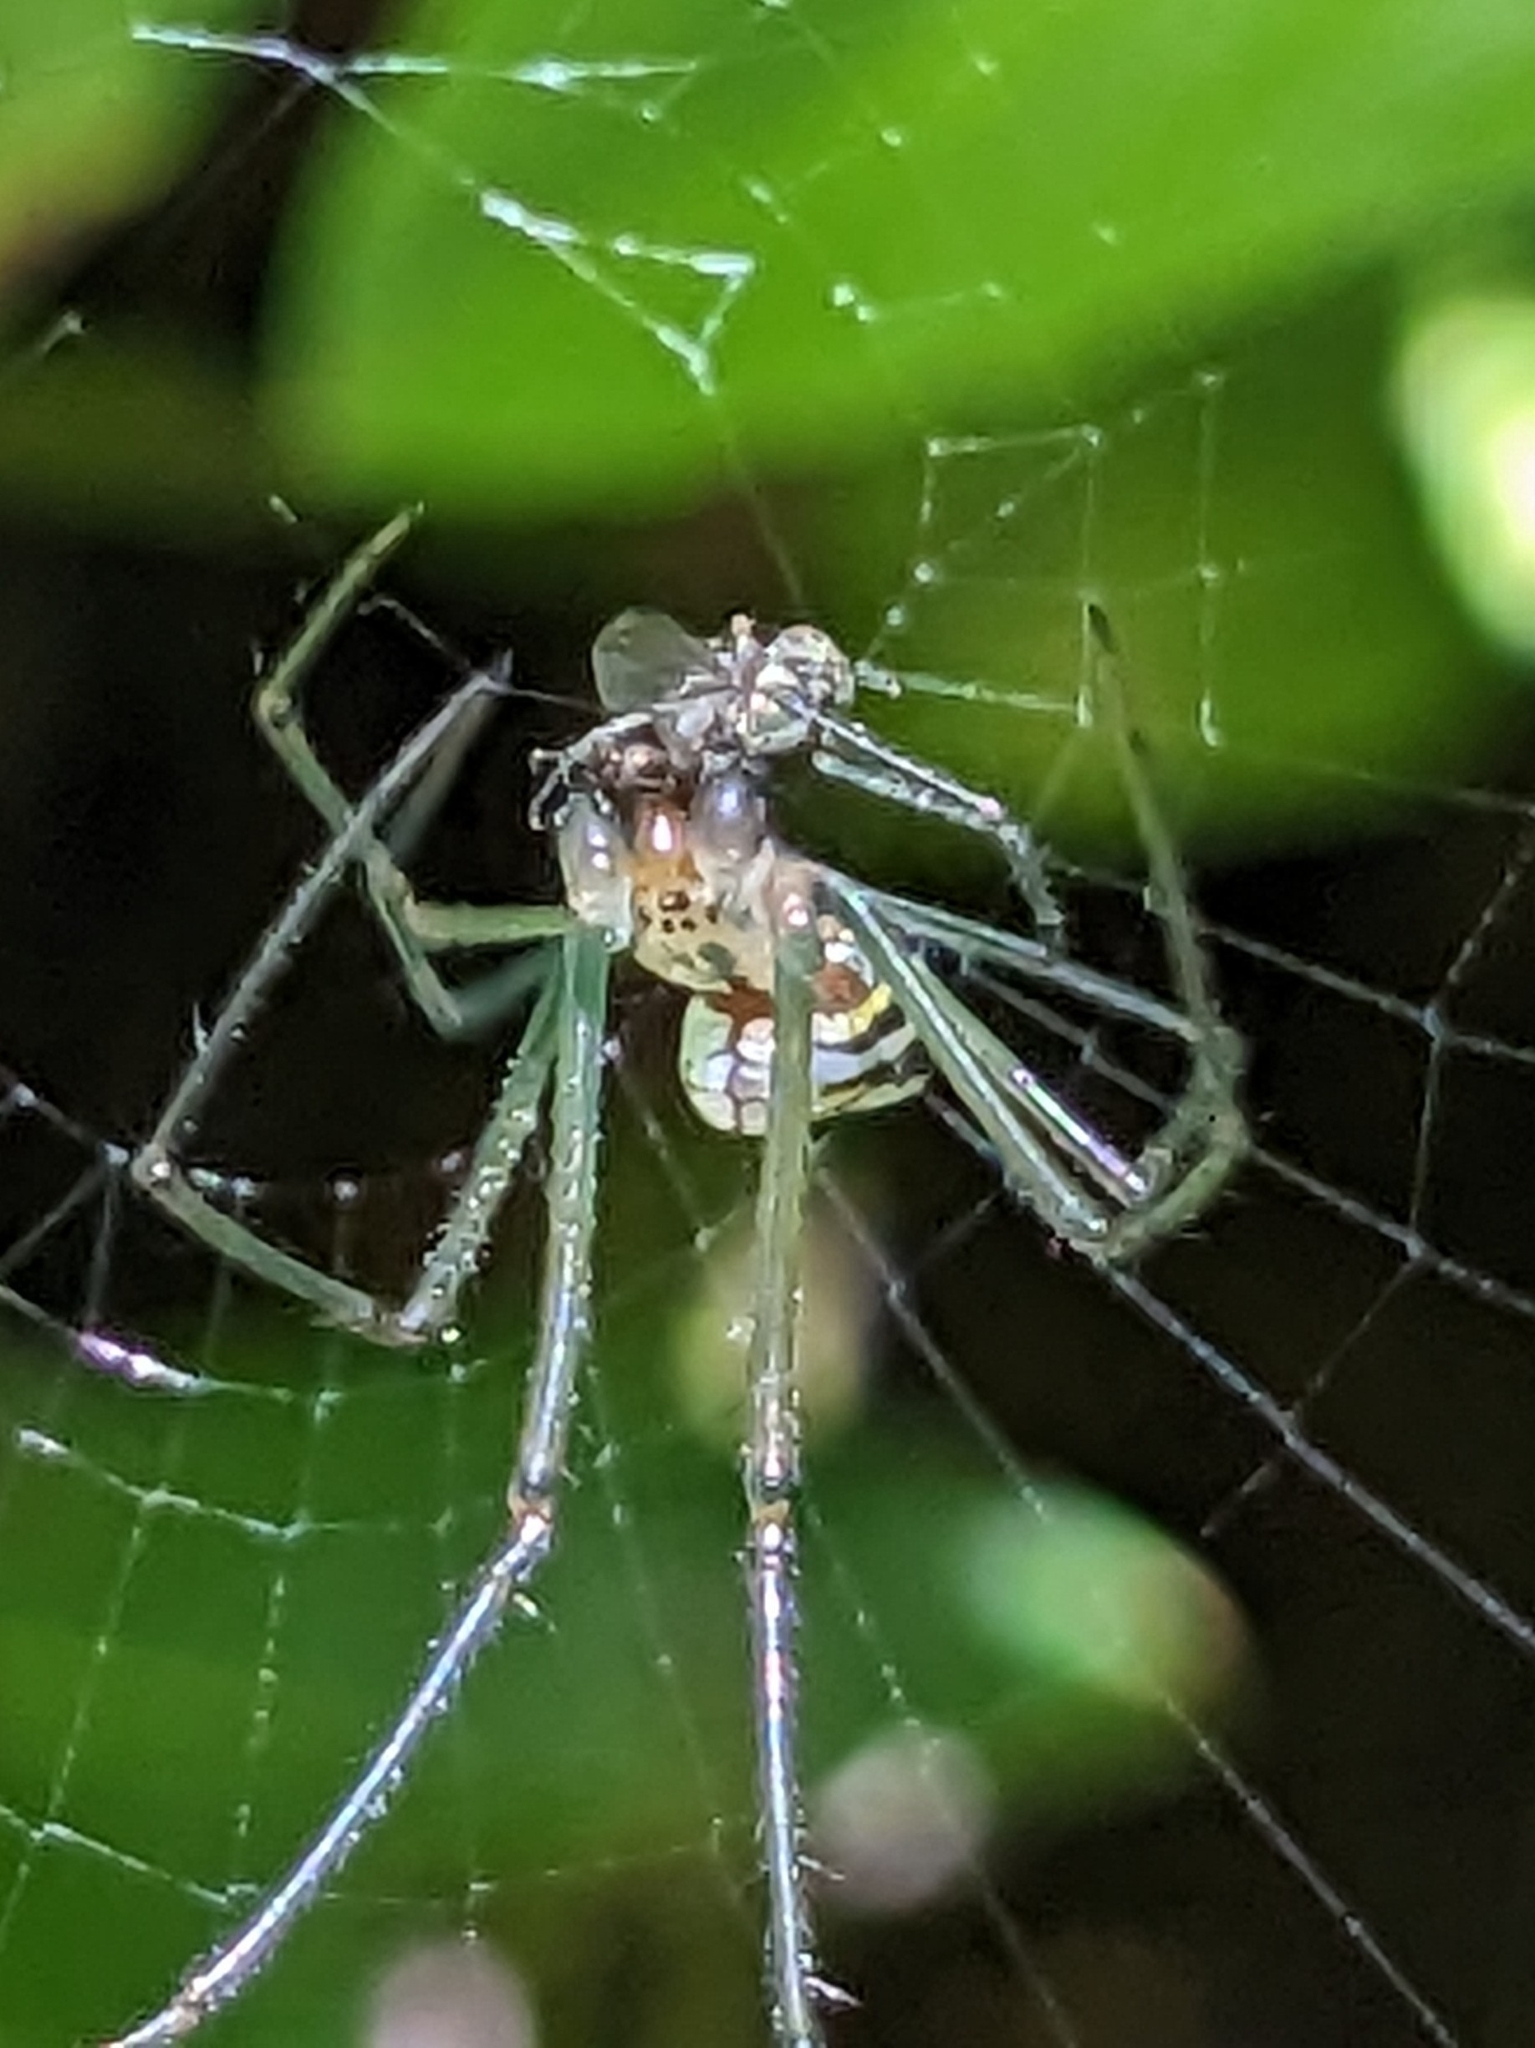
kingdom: Animalia
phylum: Arthropoda
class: Arachnida
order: Araneae
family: Tetragnathidae
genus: Leucauge
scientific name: Leucauge argyra
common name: Longjawed orb weavers
